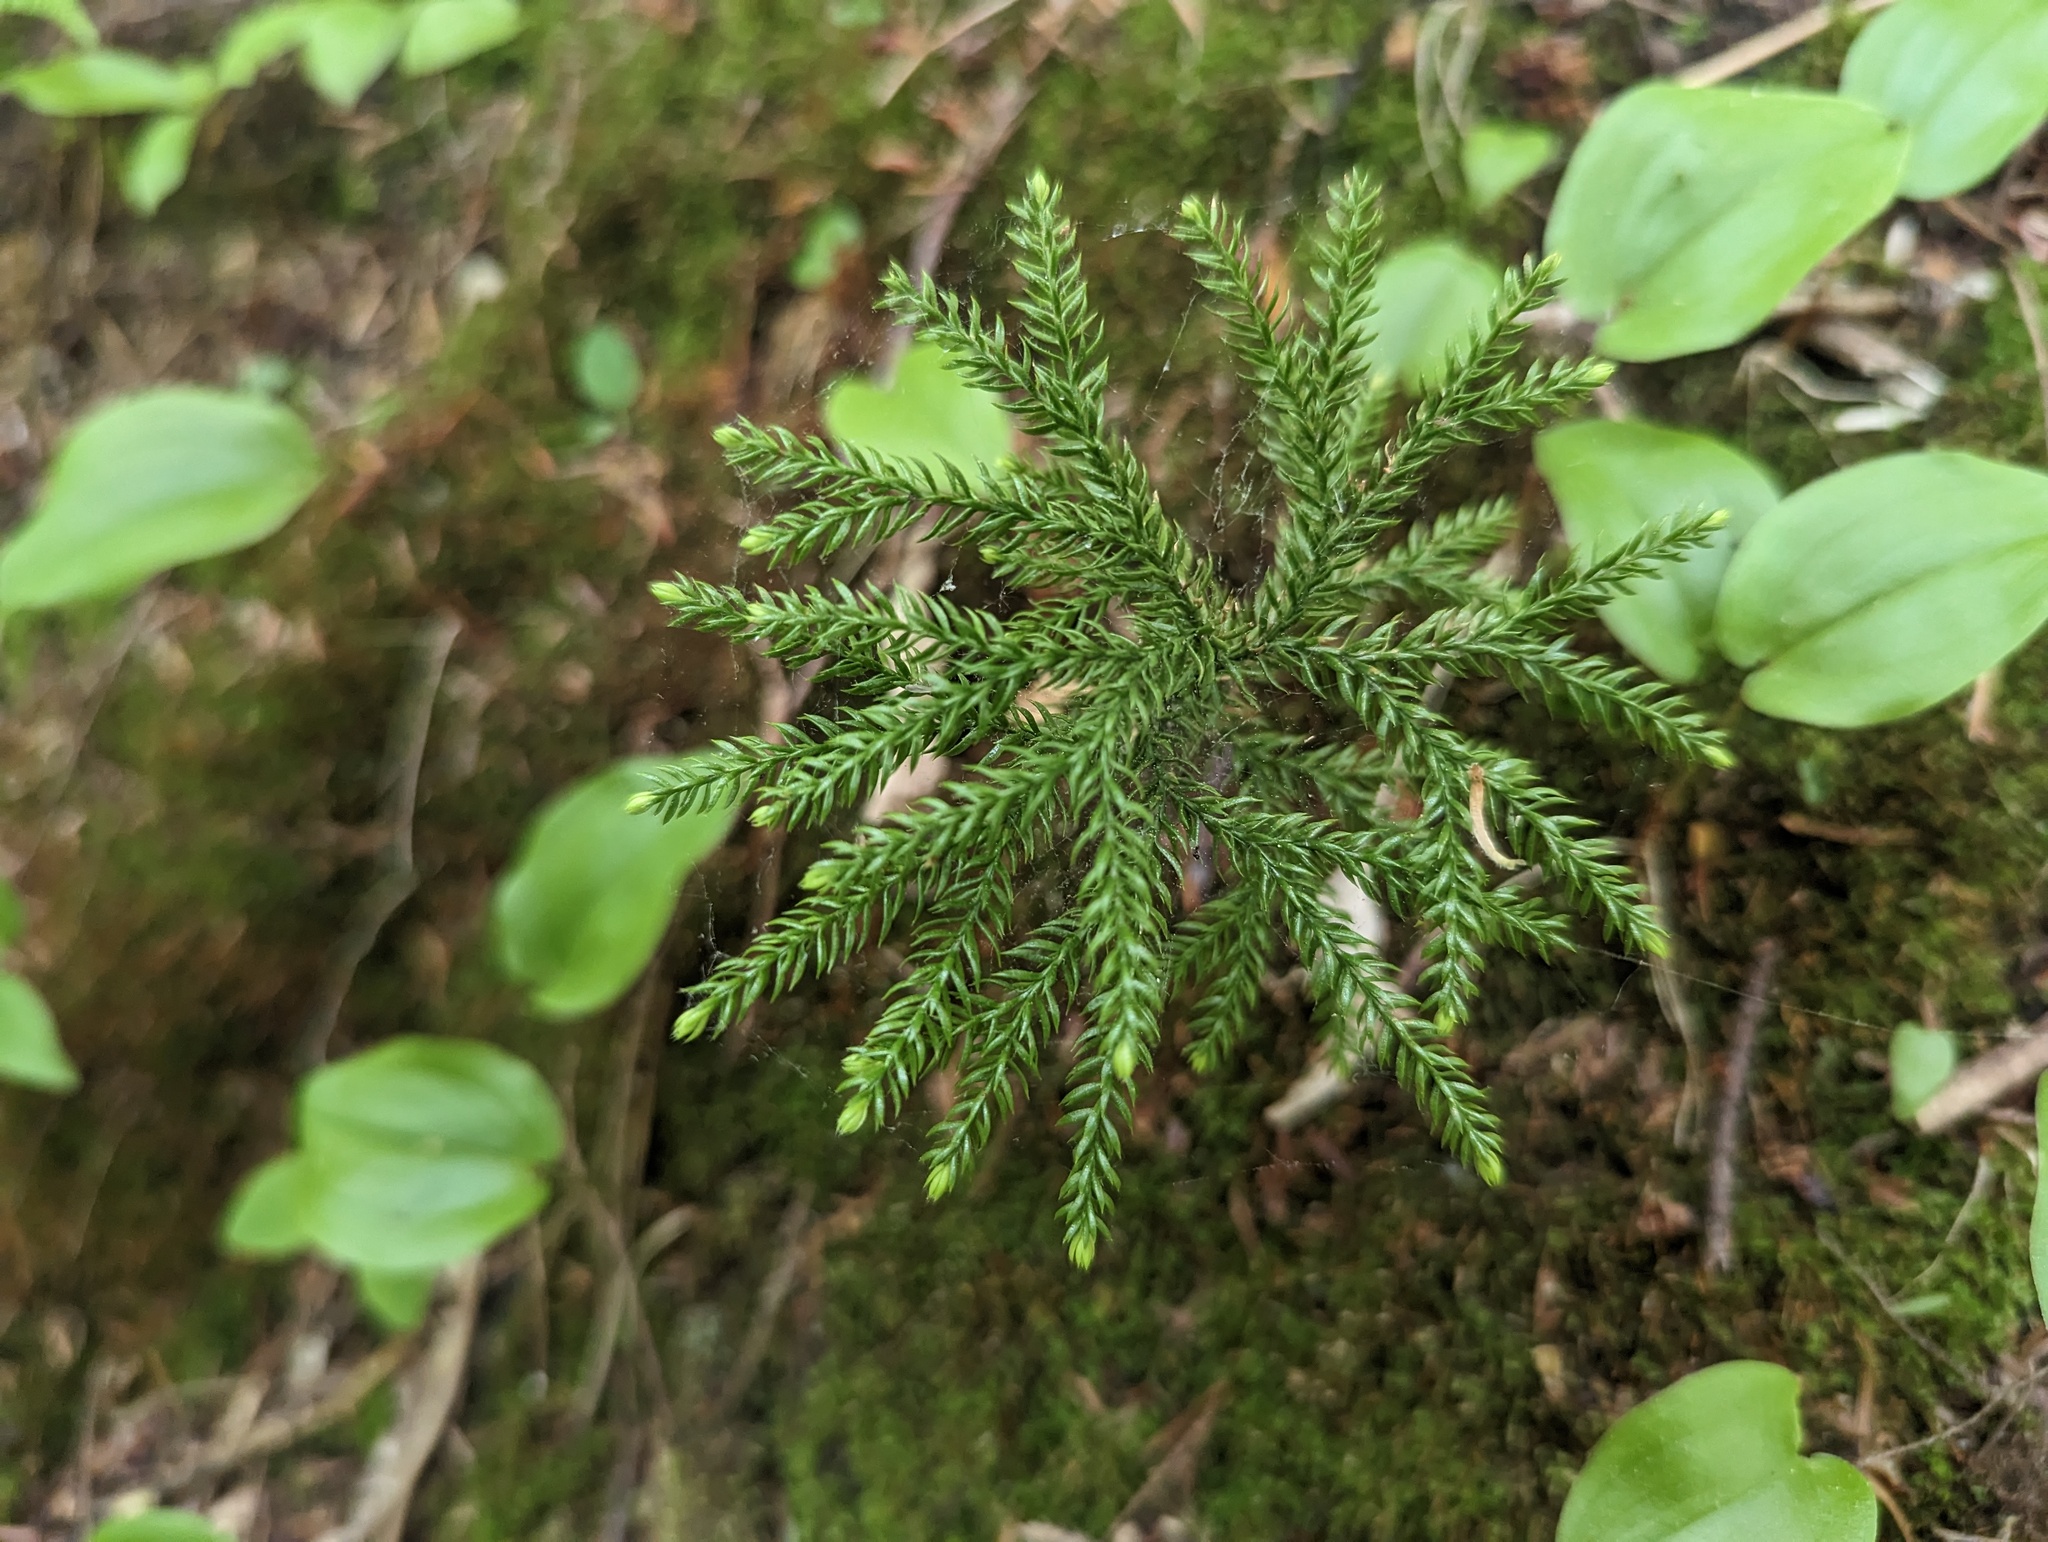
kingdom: Plantae
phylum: Tracheophyta
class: Lycopodiopsida
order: Lycopodiales
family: Lycopodiaceae
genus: Dendrolycopodium
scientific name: Dendrolycopodium dendroideum
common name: Northern tree-clubmoss
